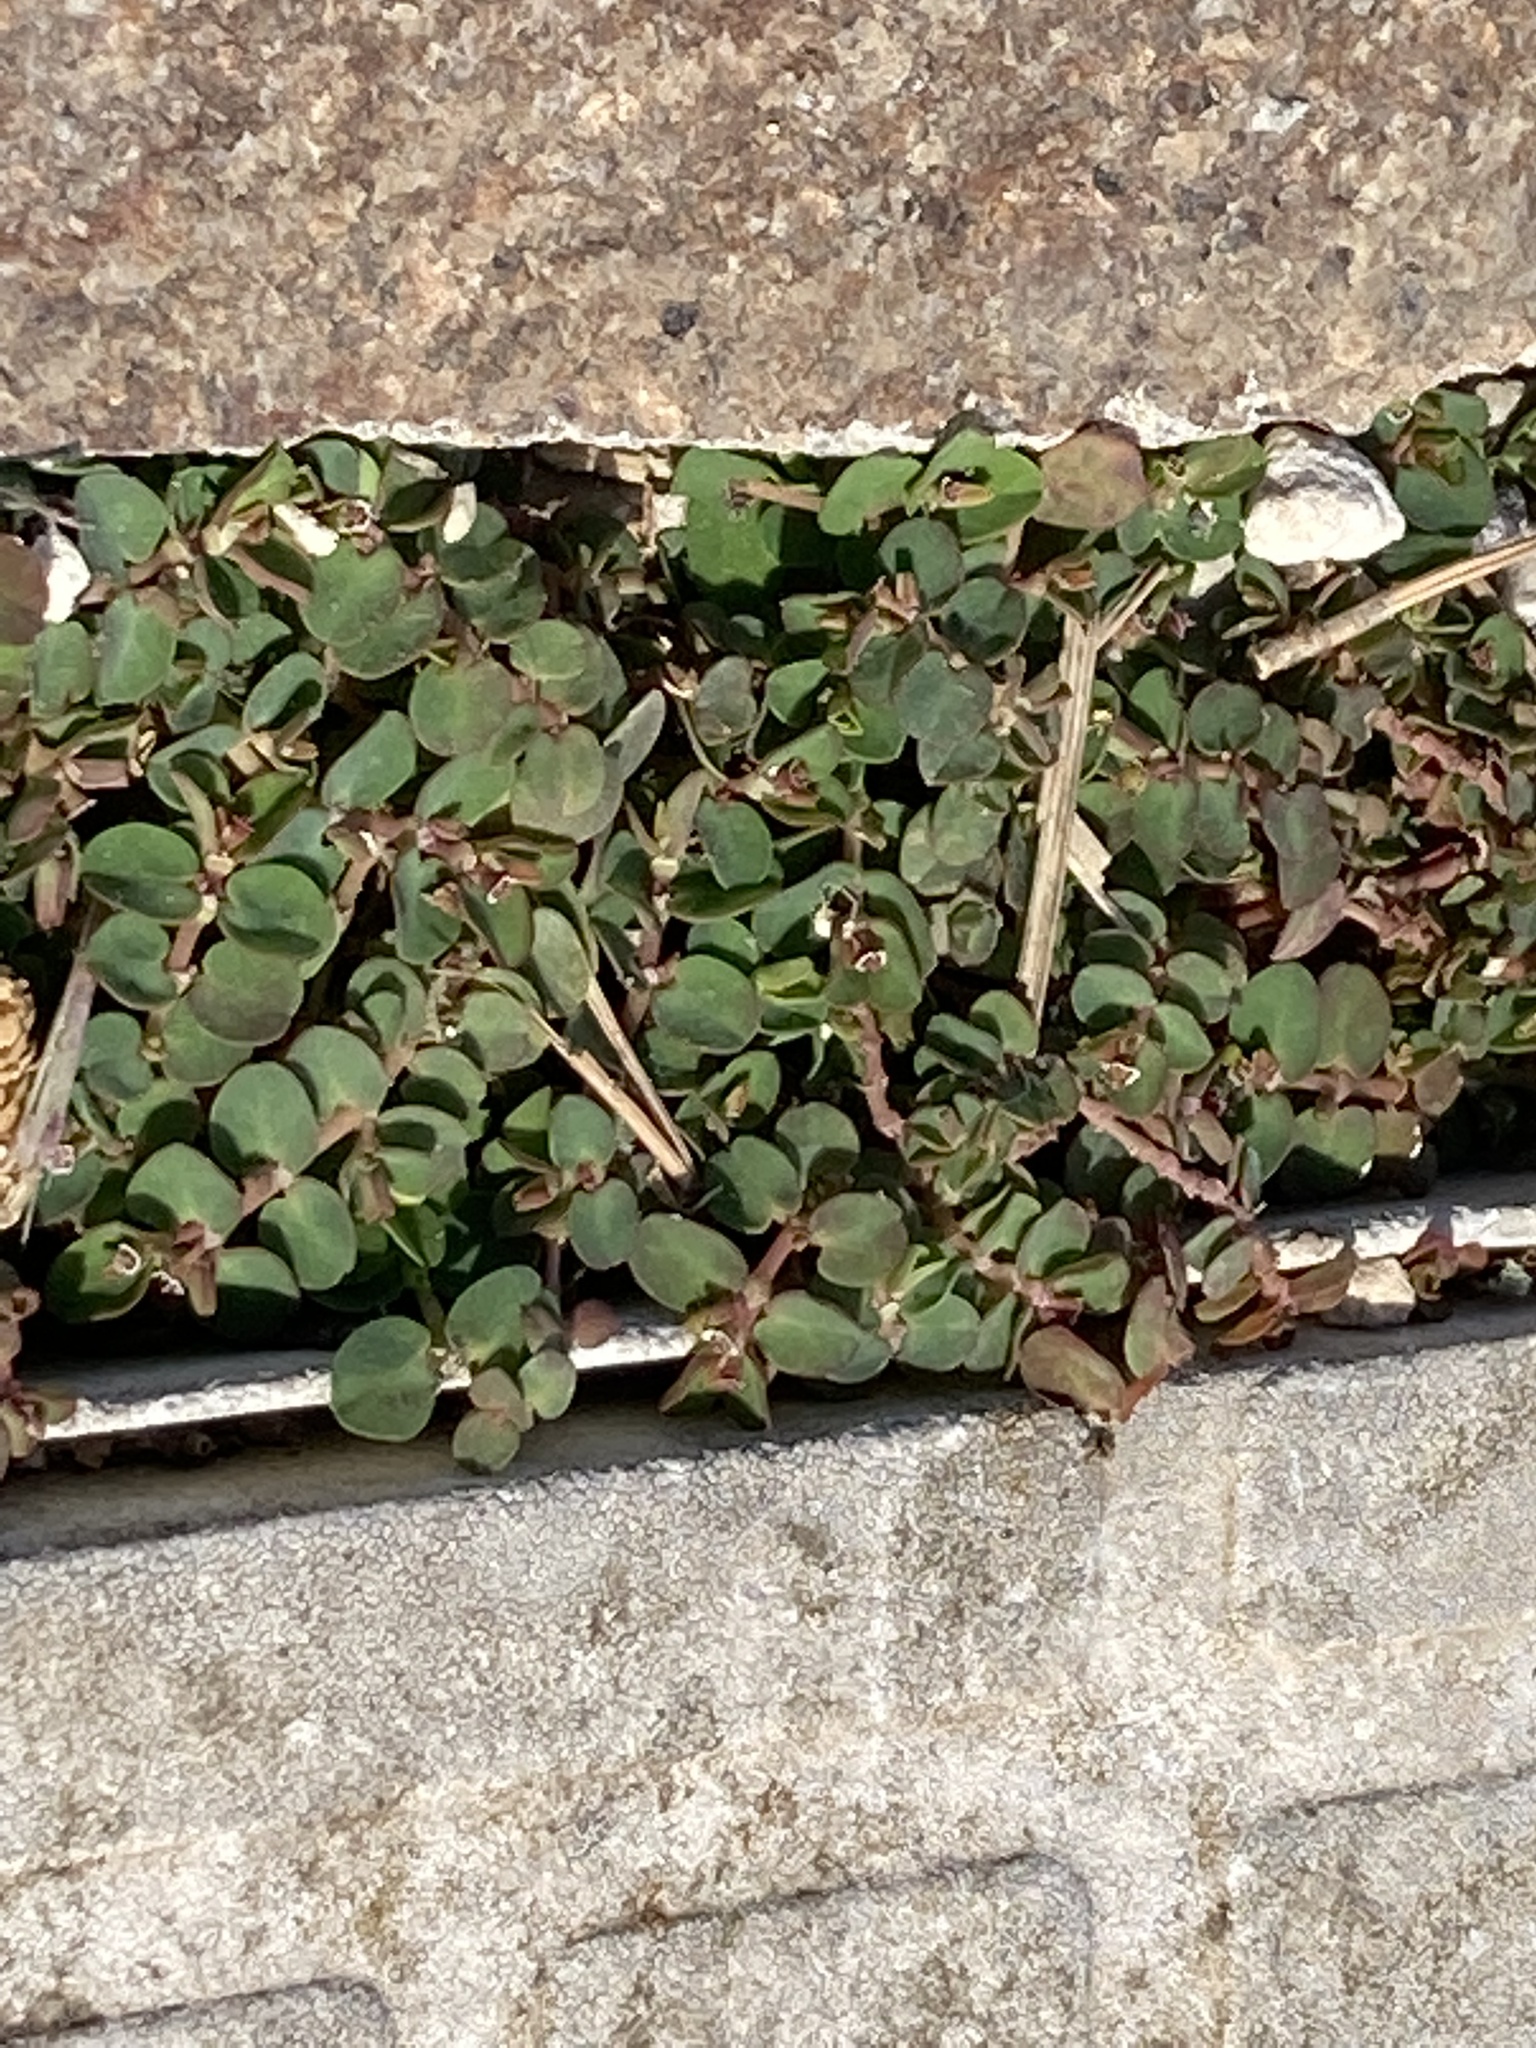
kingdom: Plantae
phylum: Tracheophyta
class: Magnoliopsida
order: Malpighiales
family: Euphorbiaceae
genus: Euphorbia
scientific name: Euphorbia serpens
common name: Matted sandmat
